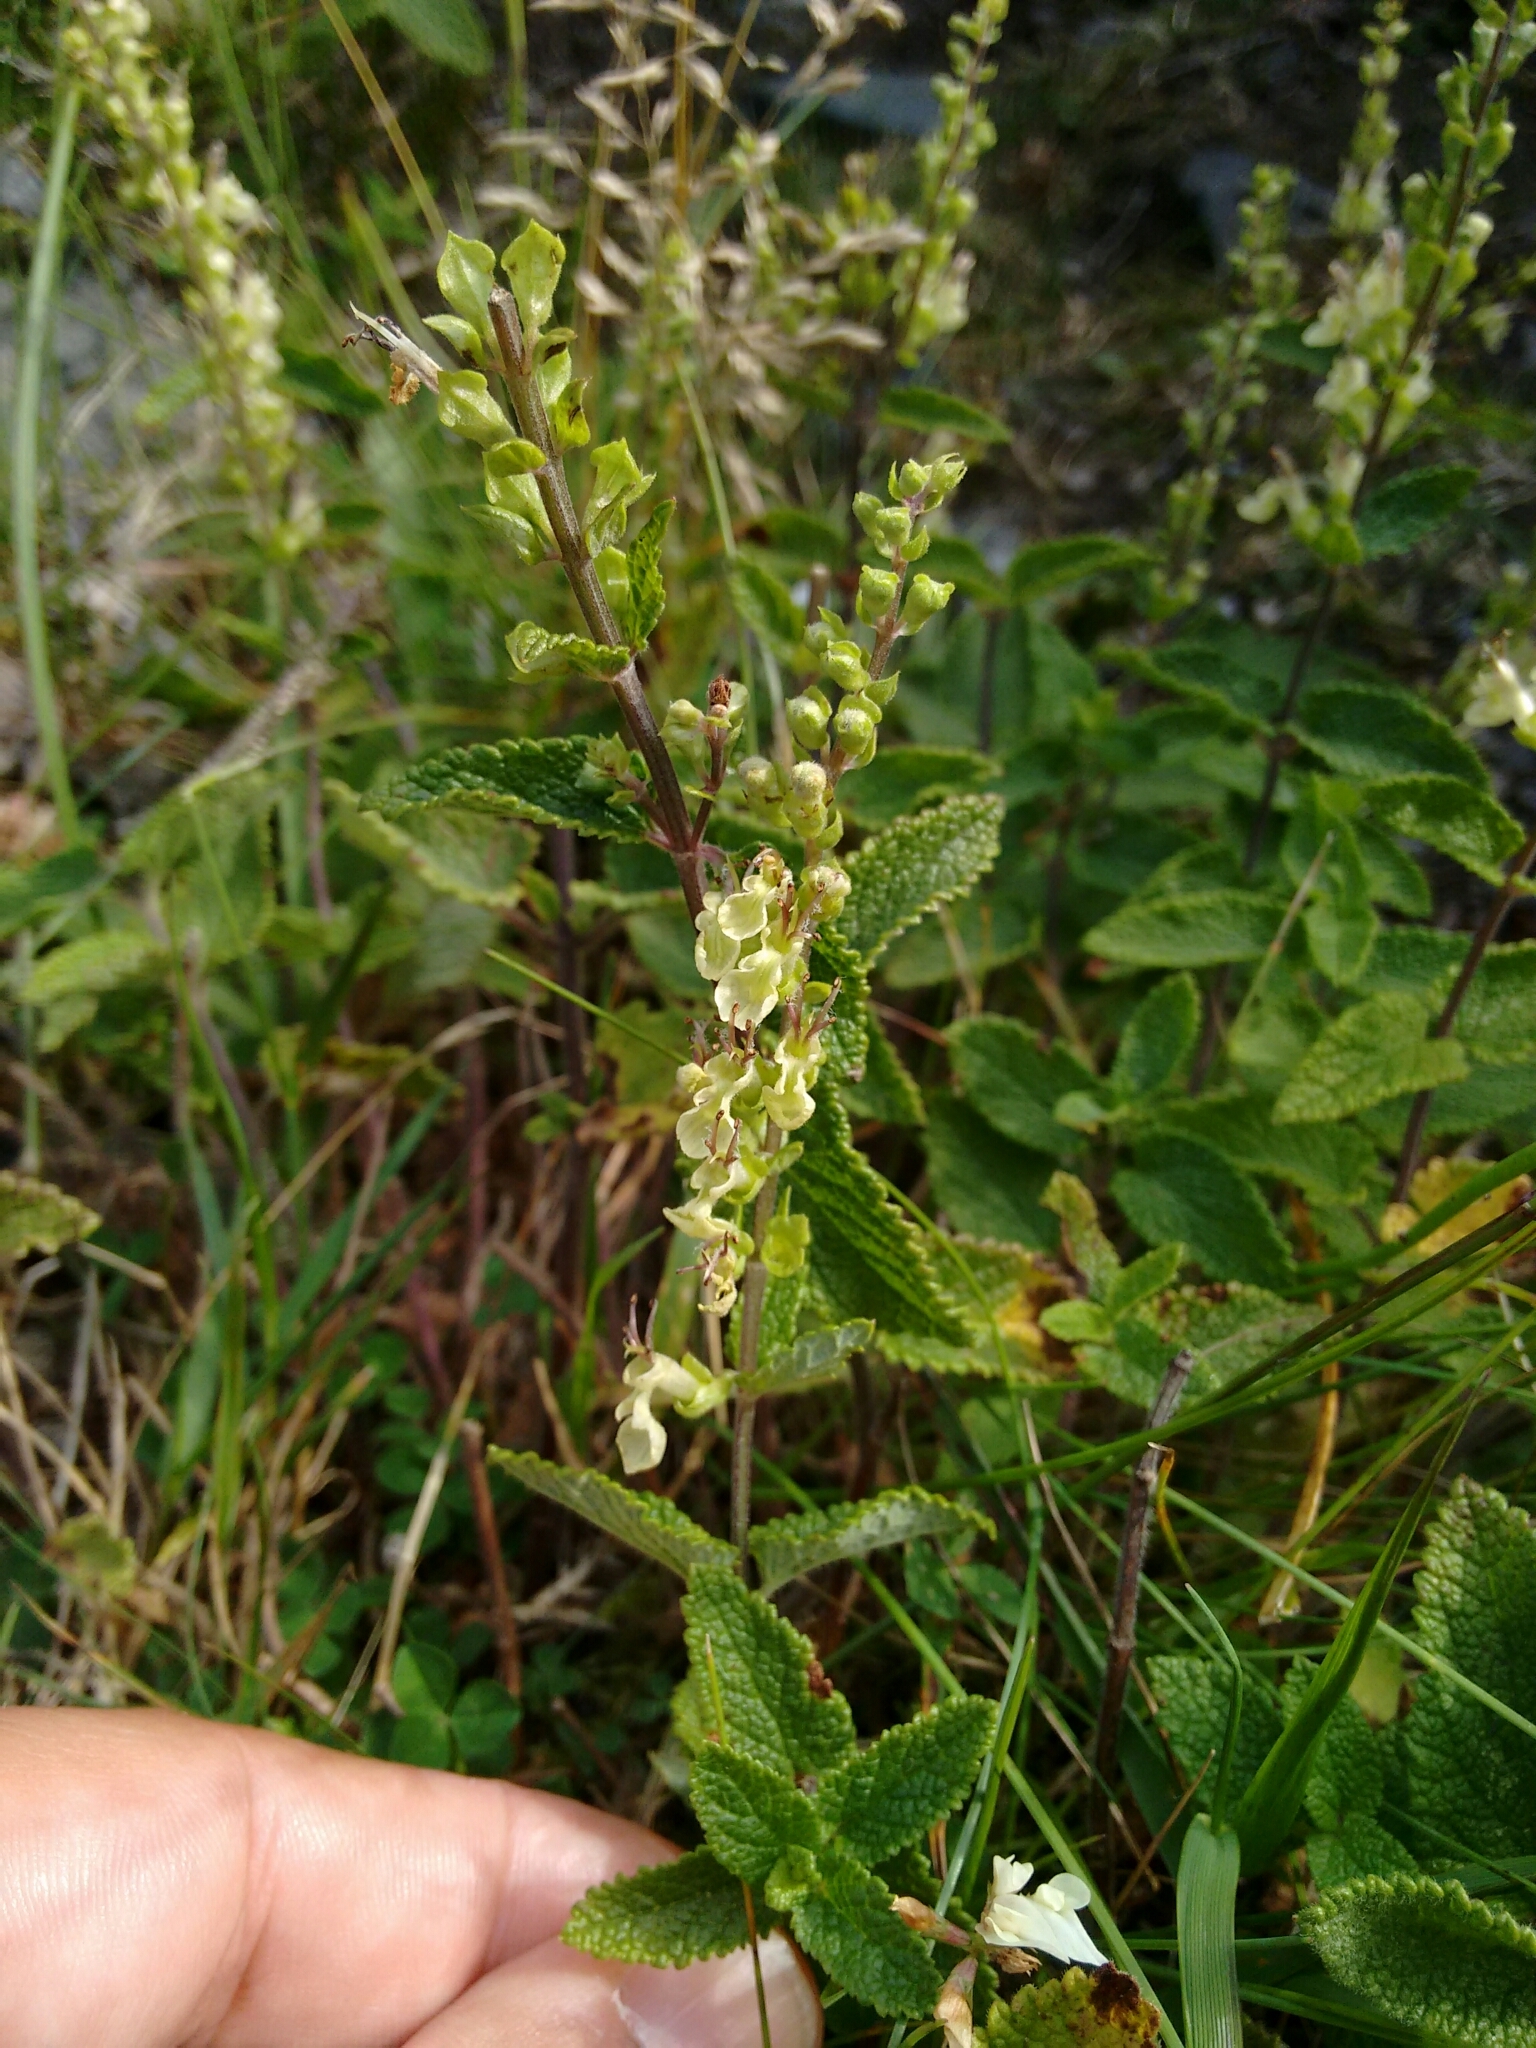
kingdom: Plantae
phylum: Tracheophyta
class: Magnoliopsida
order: Lamiales
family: Lamiaceae
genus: Teucrium
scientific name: Teucrium scorodonia
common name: Woodland germander
